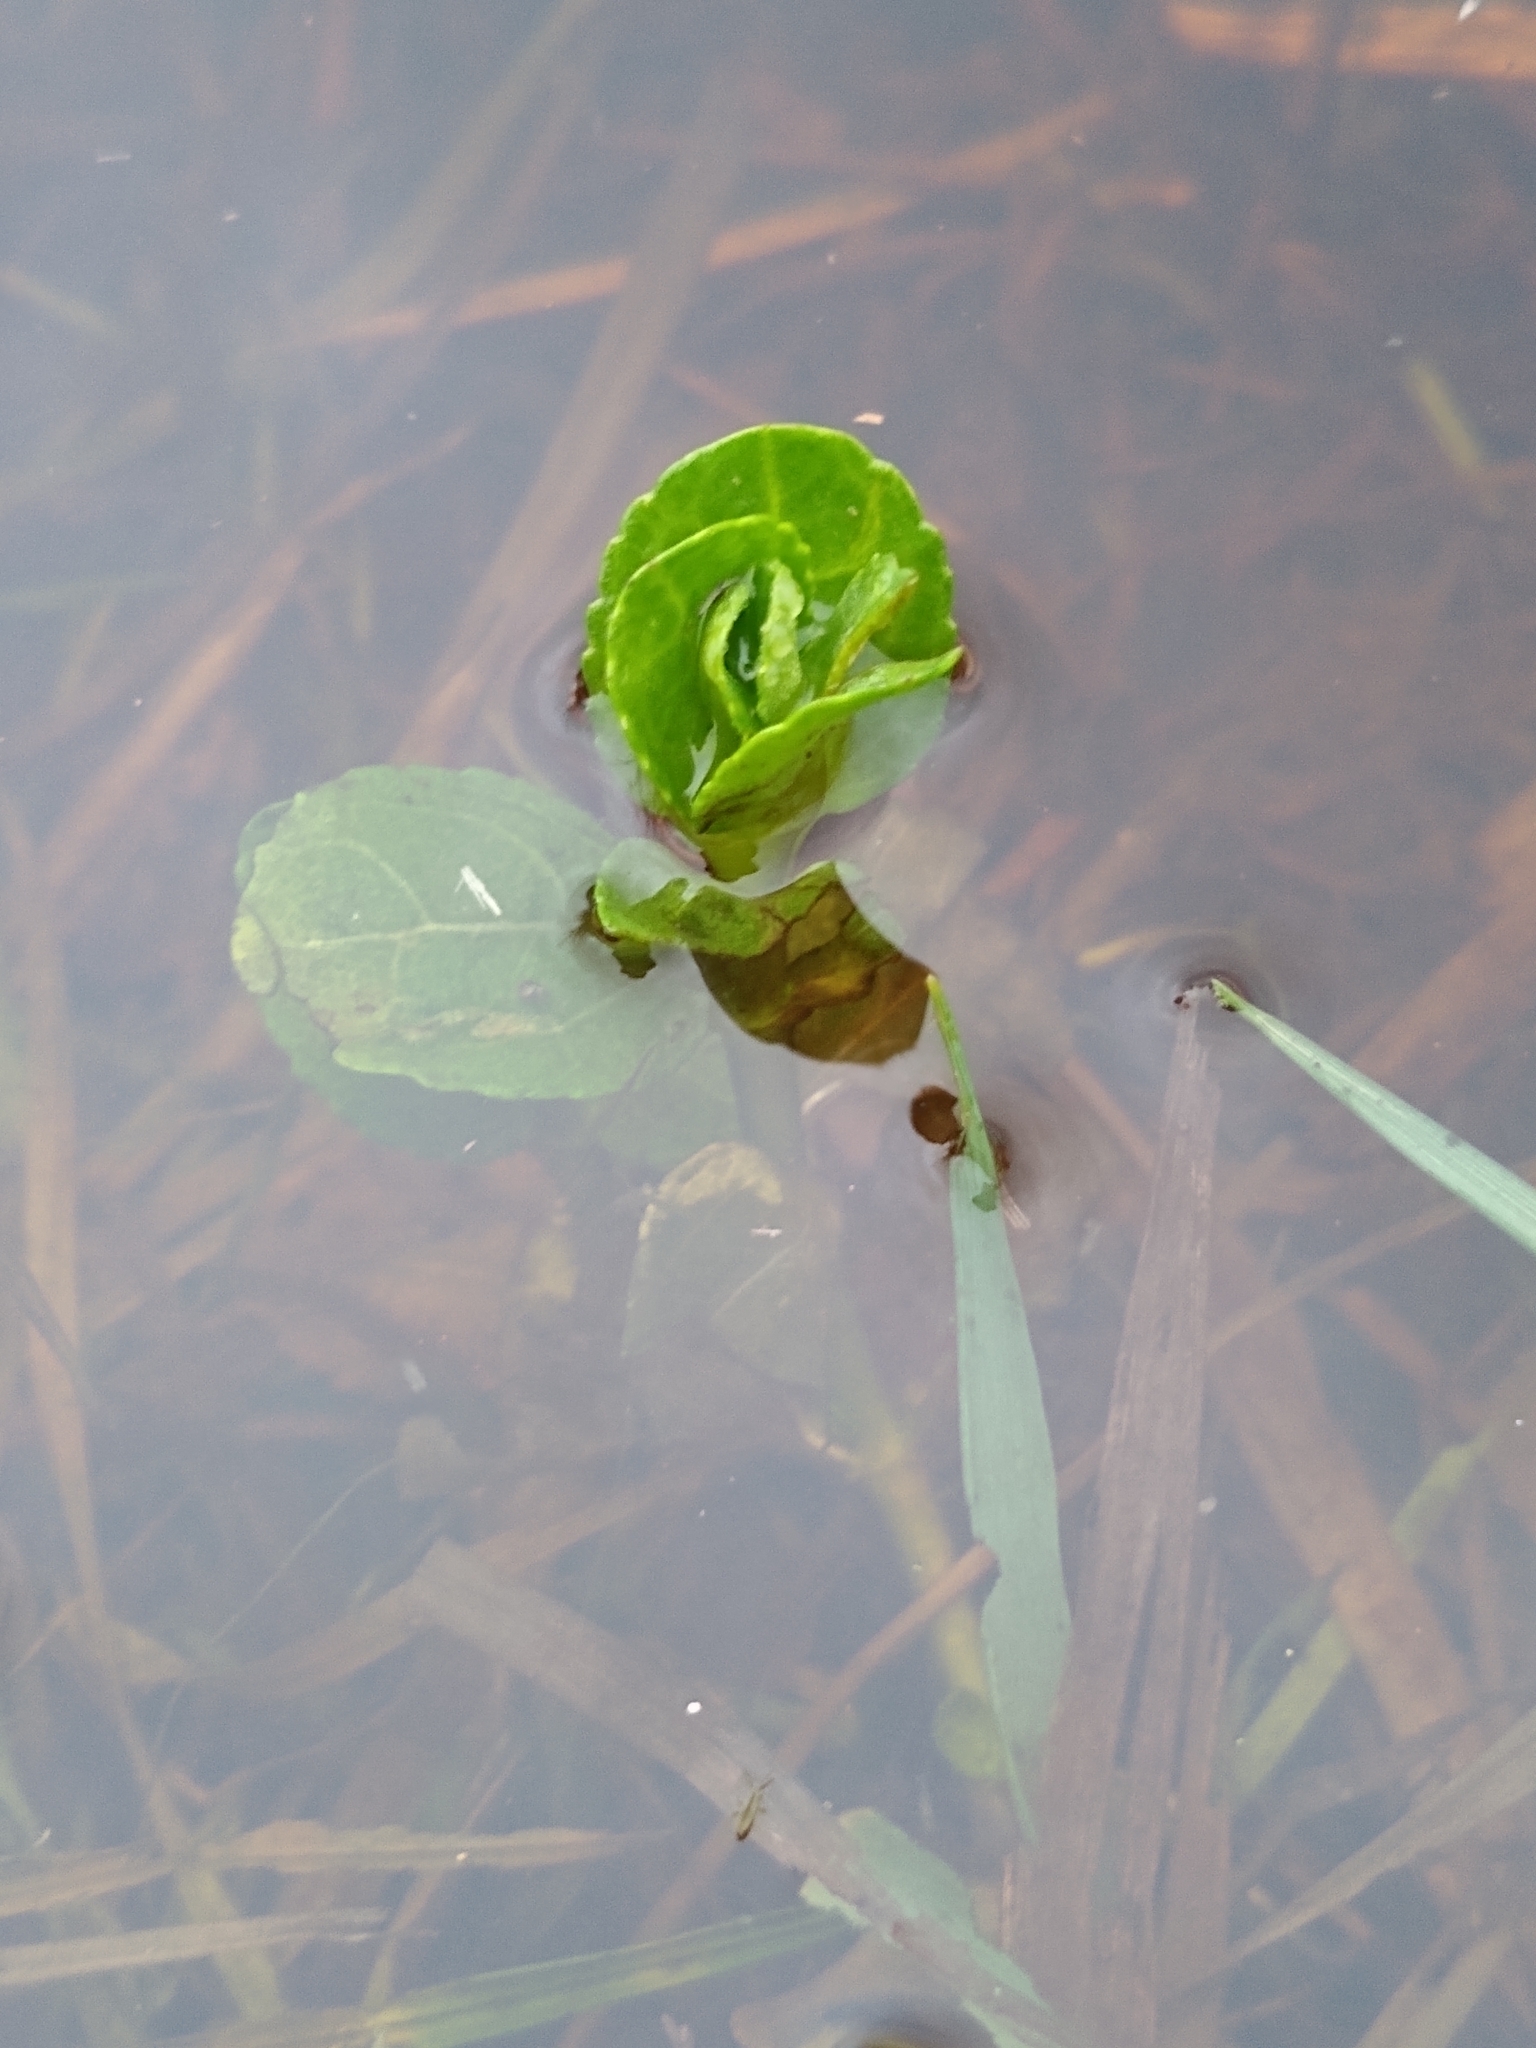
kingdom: Plantae
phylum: Tracheophyta
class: Magnoliopsida
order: Lamiales
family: Plantaginaceae
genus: Veronica
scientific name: Veronica beccabunga
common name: Brooklime
